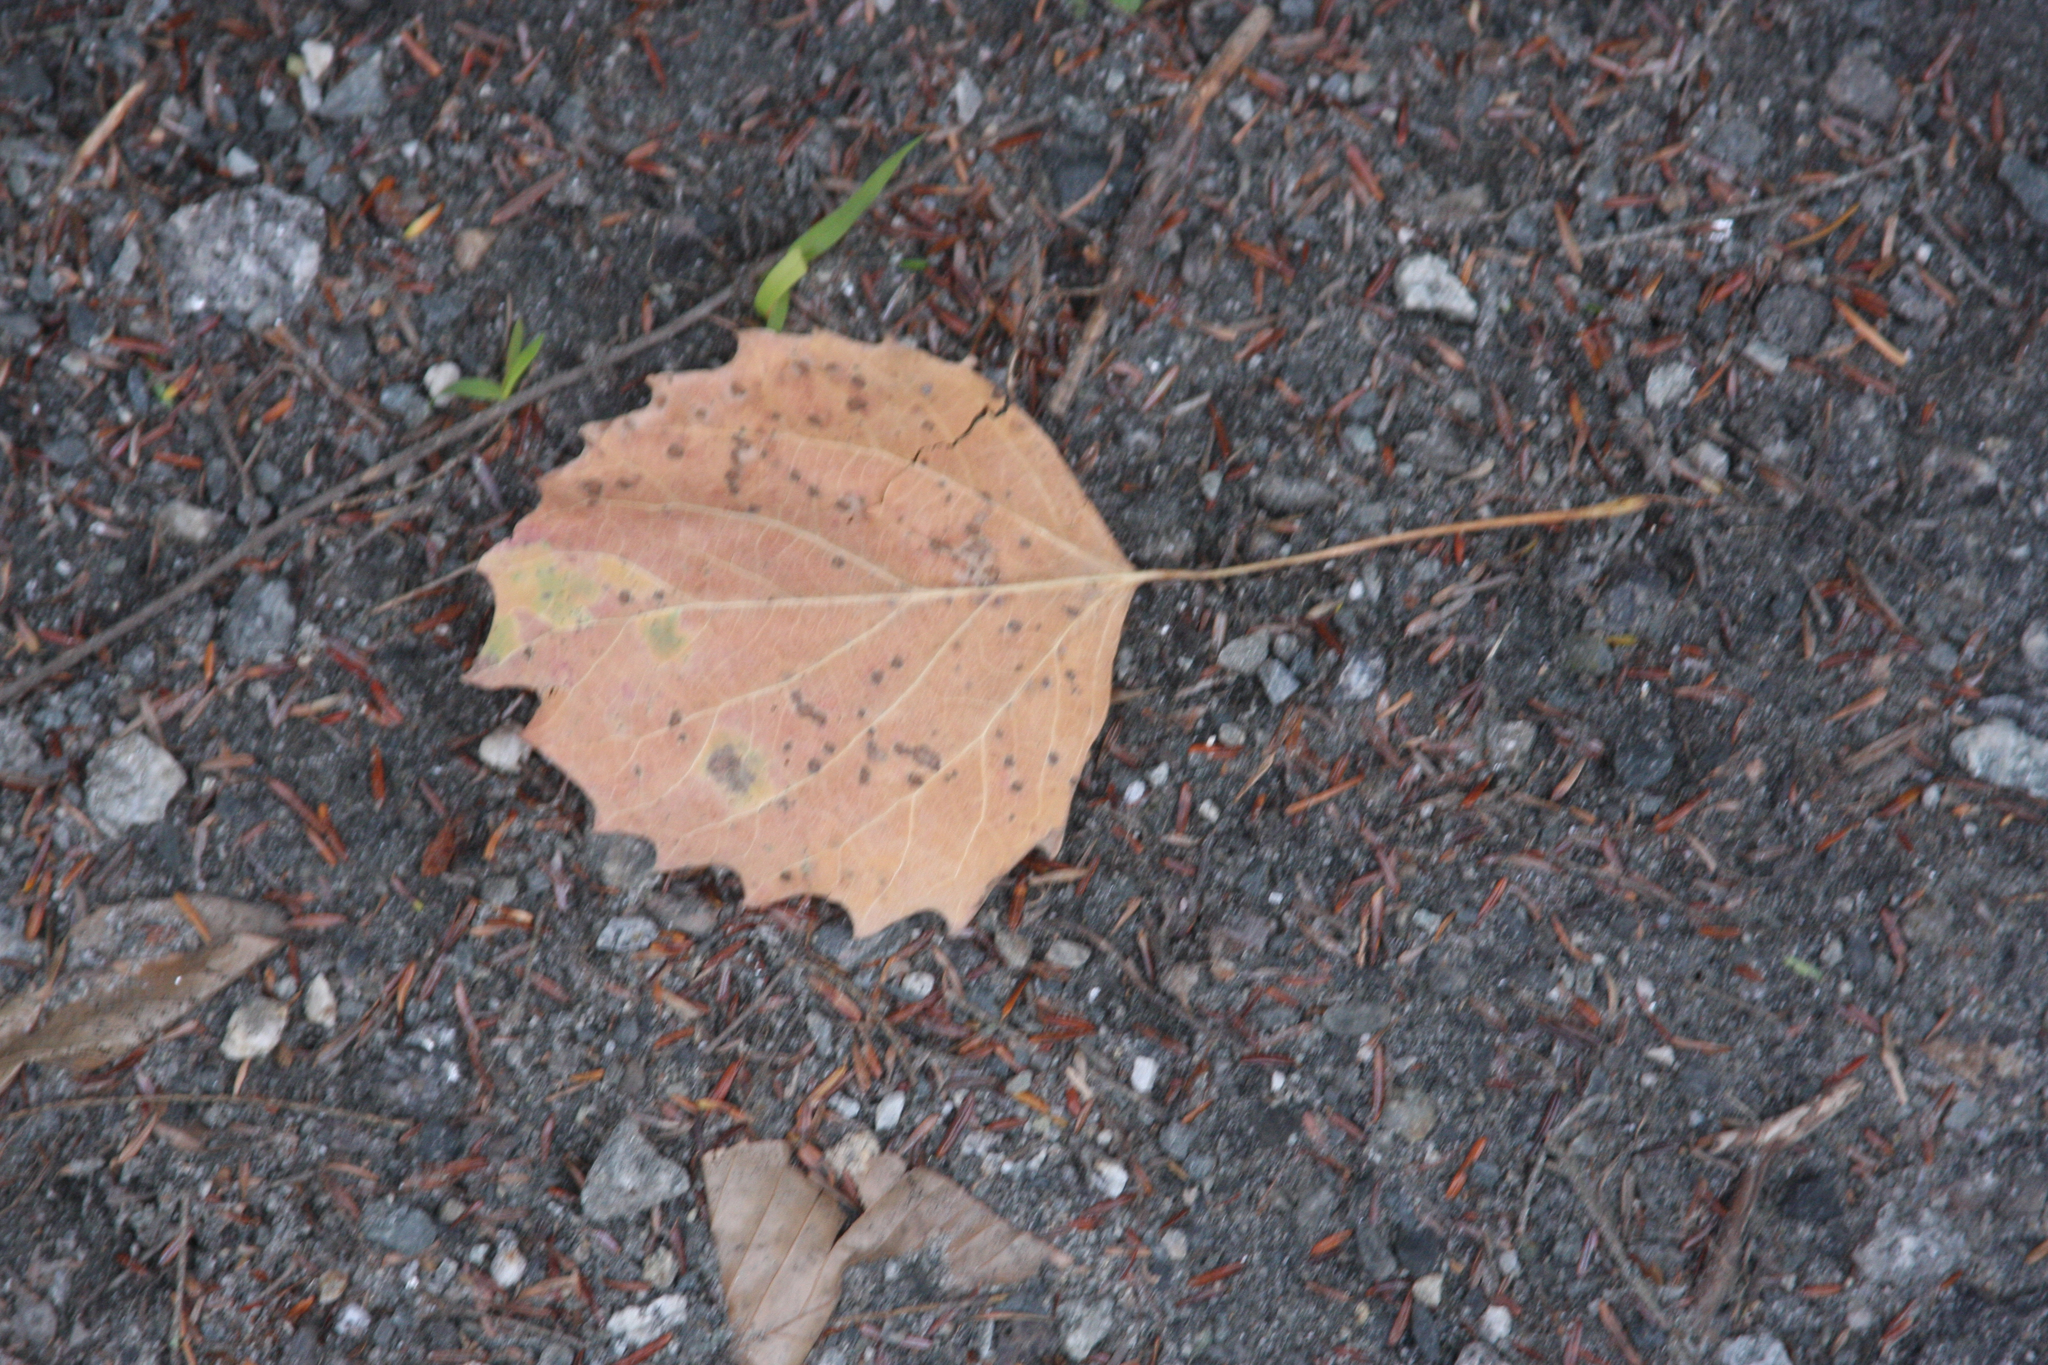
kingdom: Plantae
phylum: Tracheophyta
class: Magnoliopsida
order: Malpighiales
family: Salicaceae
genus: Populus
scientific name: Populus grandidentata
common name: Bigtooth aspen
